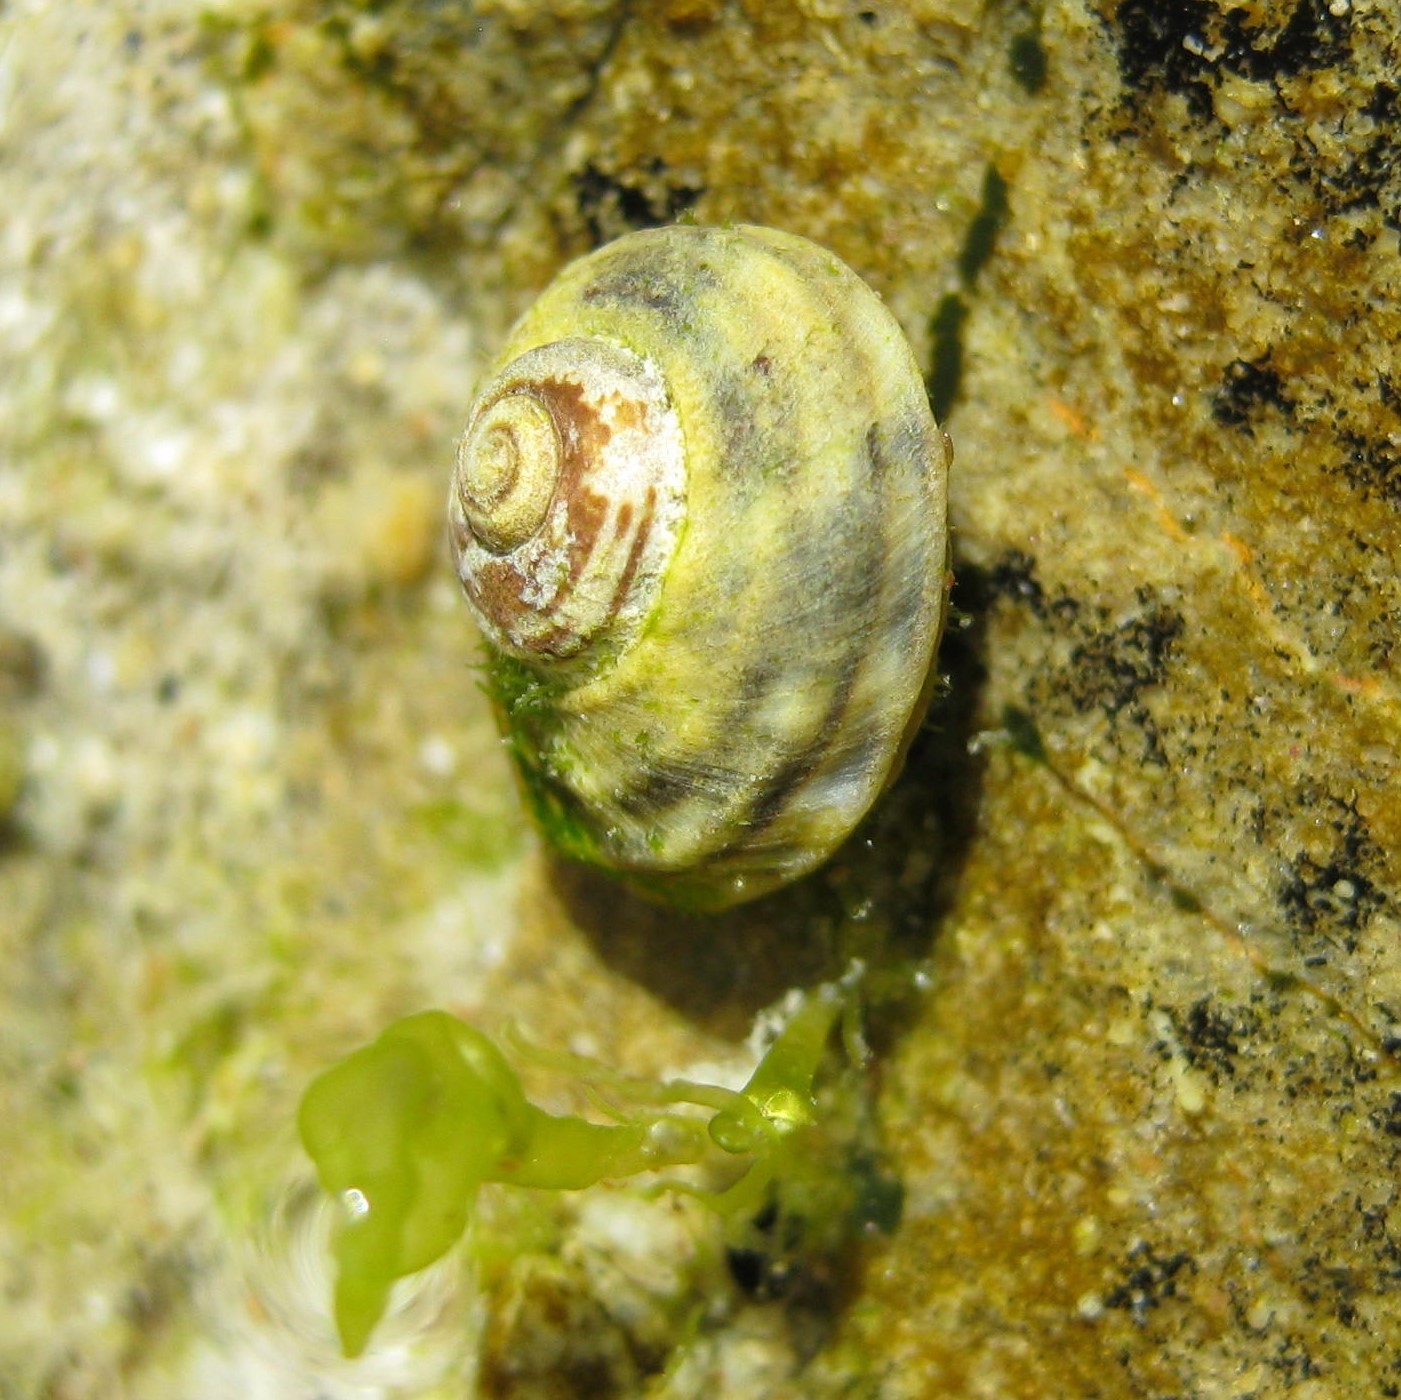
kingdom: Animalia
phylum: Mollusca
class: Gastropoda
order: Littorinimorpha
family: Littorinidae
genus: Risellopsis
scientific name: Risellopsis varia
